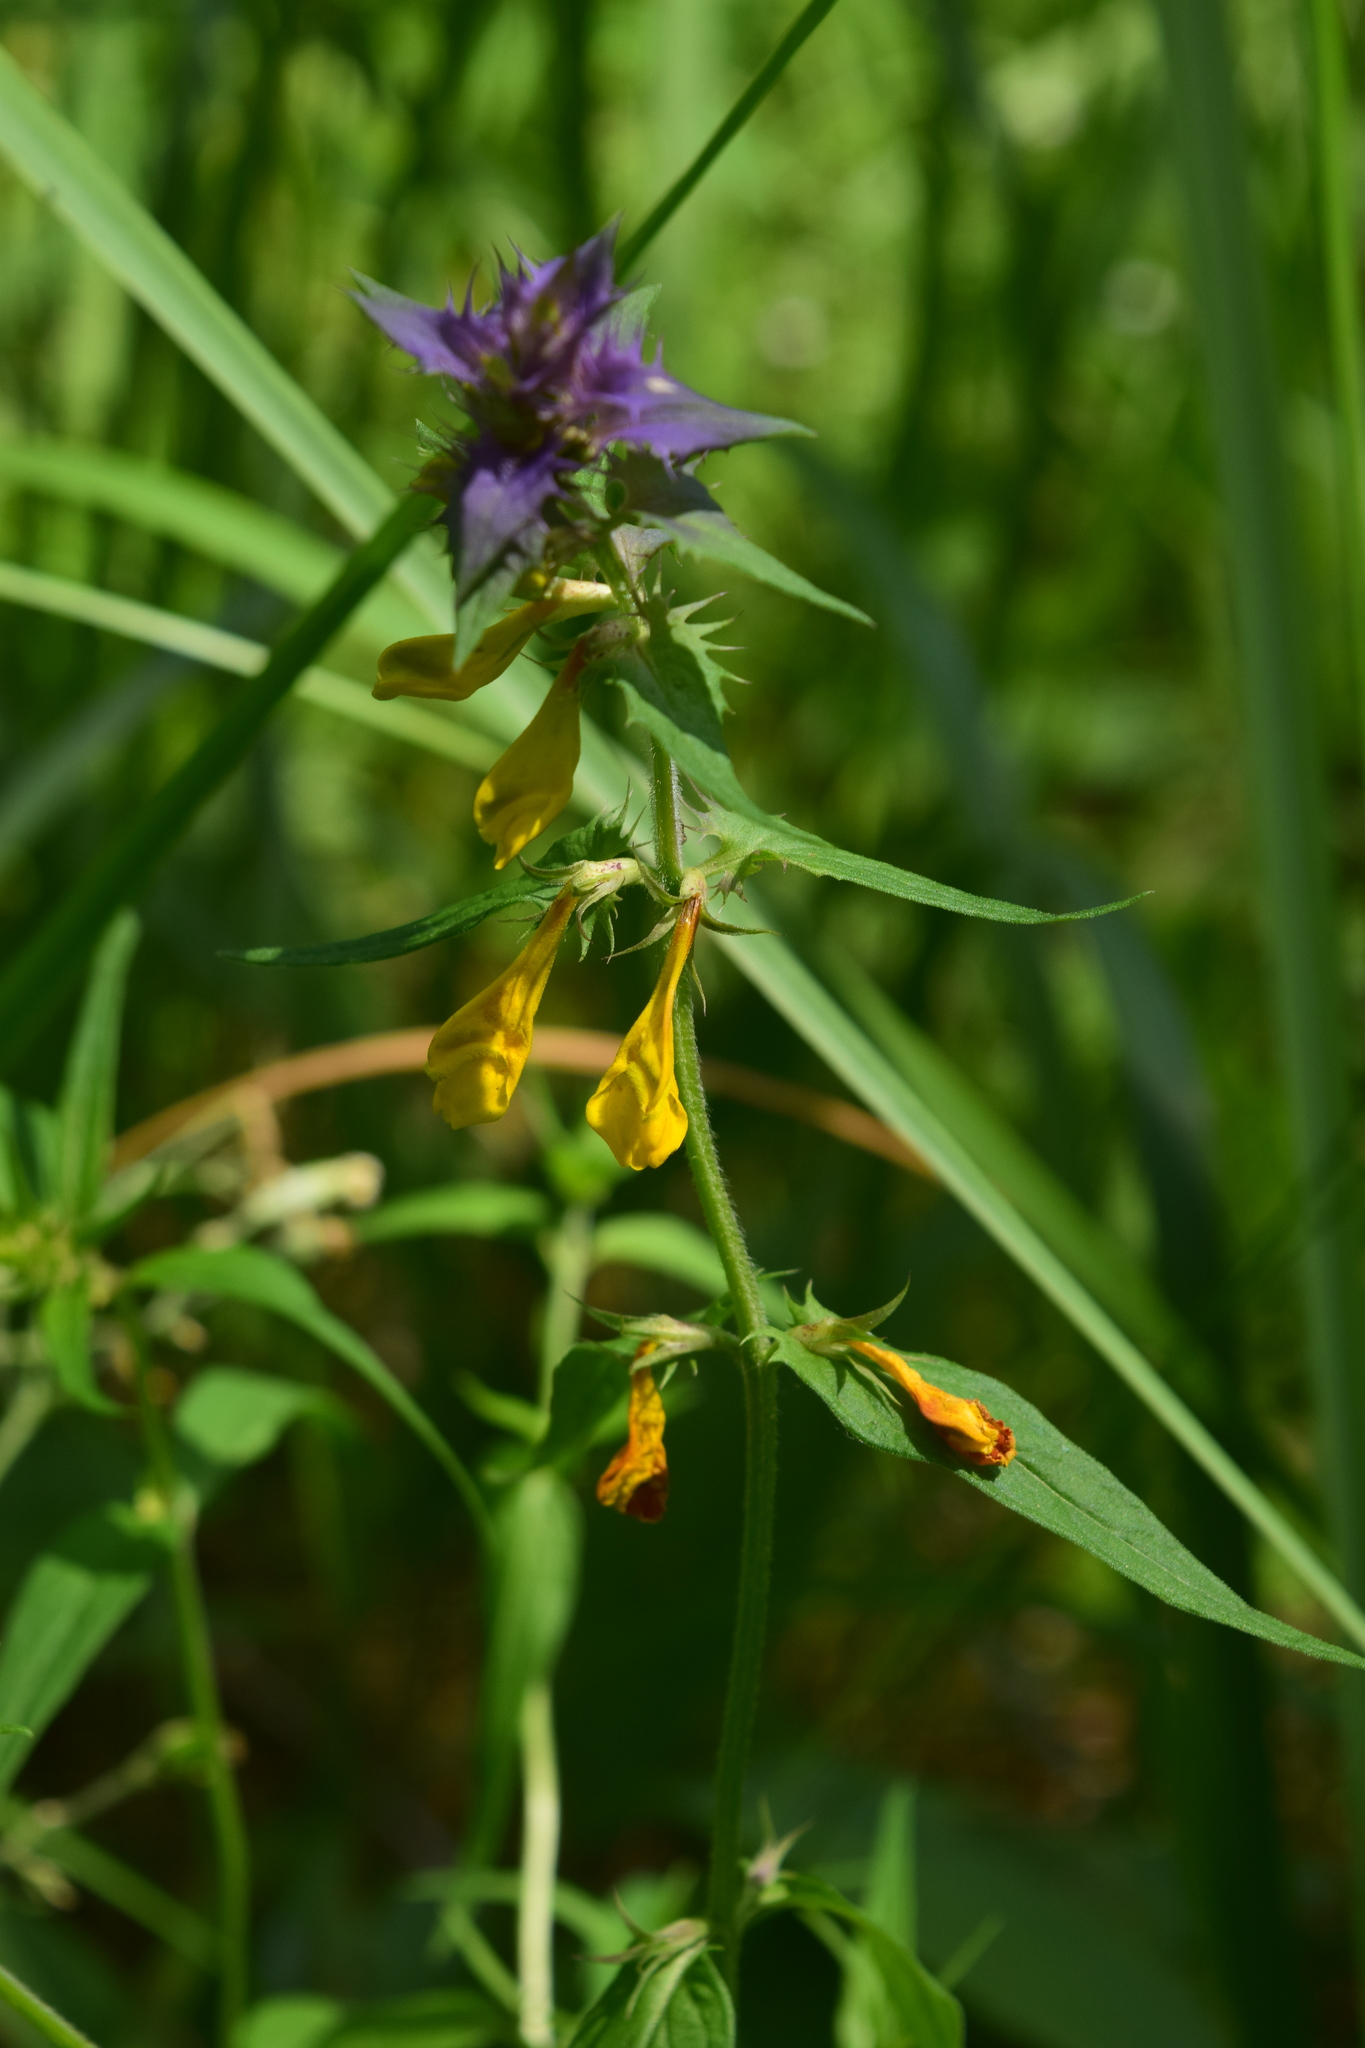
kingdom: Plantae
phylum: Tracheophyta
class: Magnoliopsida
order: Lamiales
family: Orobanchaceae
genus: Melampyrum
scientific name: Melampyrum nemorosum
